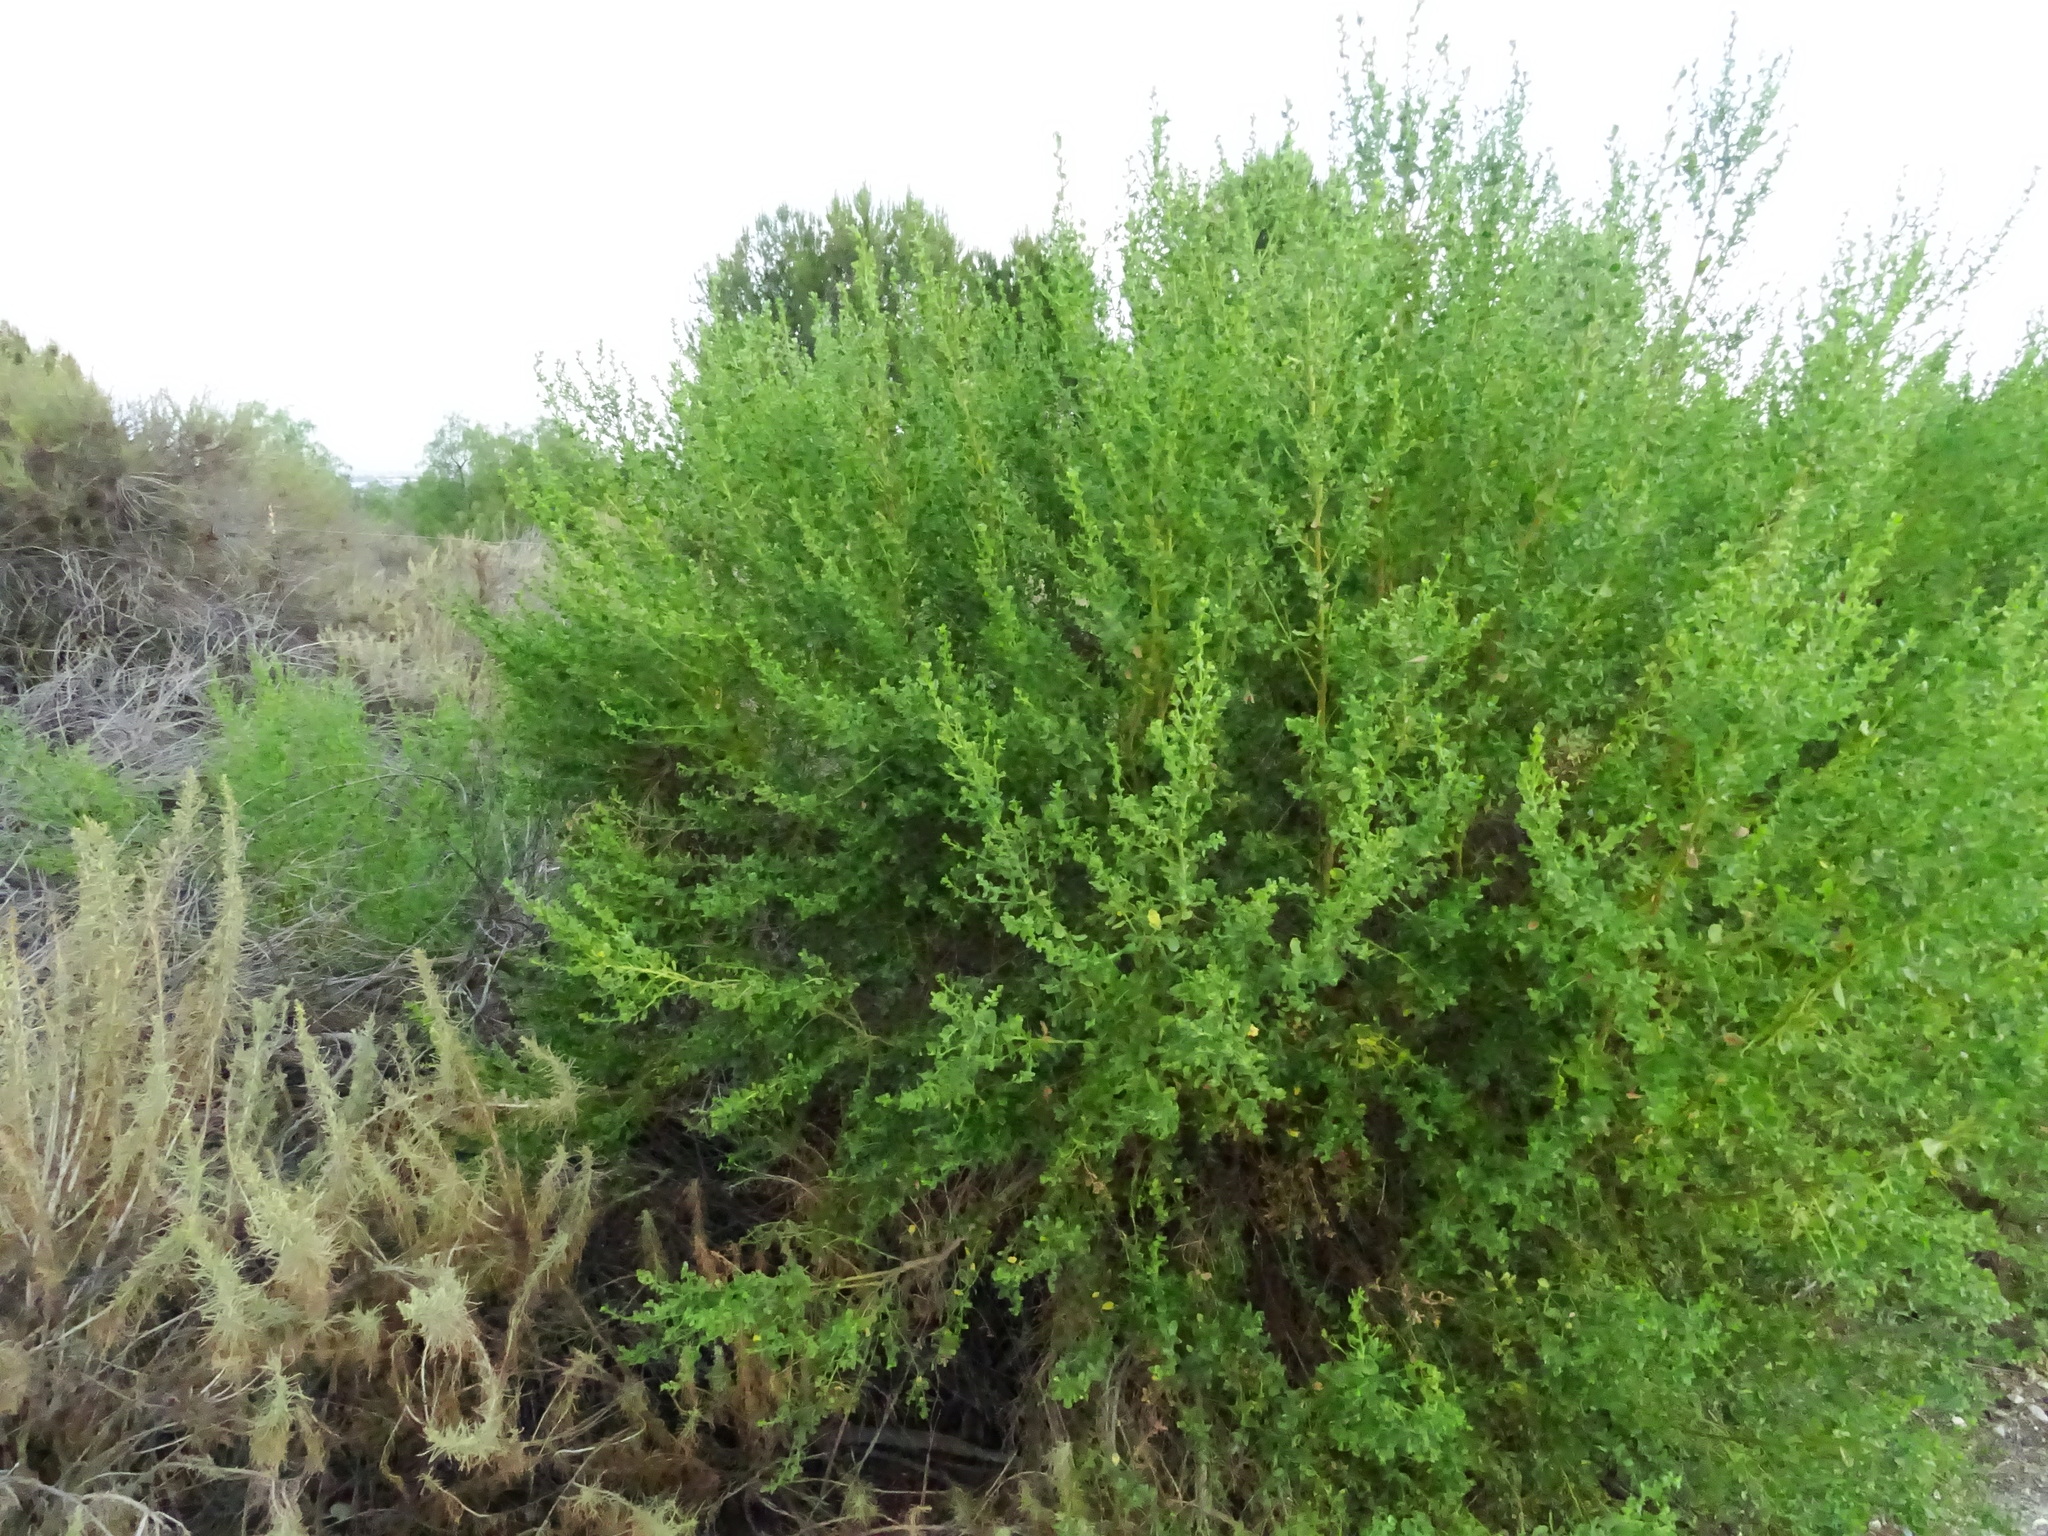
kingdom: Plantae
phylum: Tracheophyta
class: Magnoliopsida
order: Asterales
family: Asteraceae
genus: Baccharis
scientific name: Baccharis pilularis
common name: Coyotebrush
